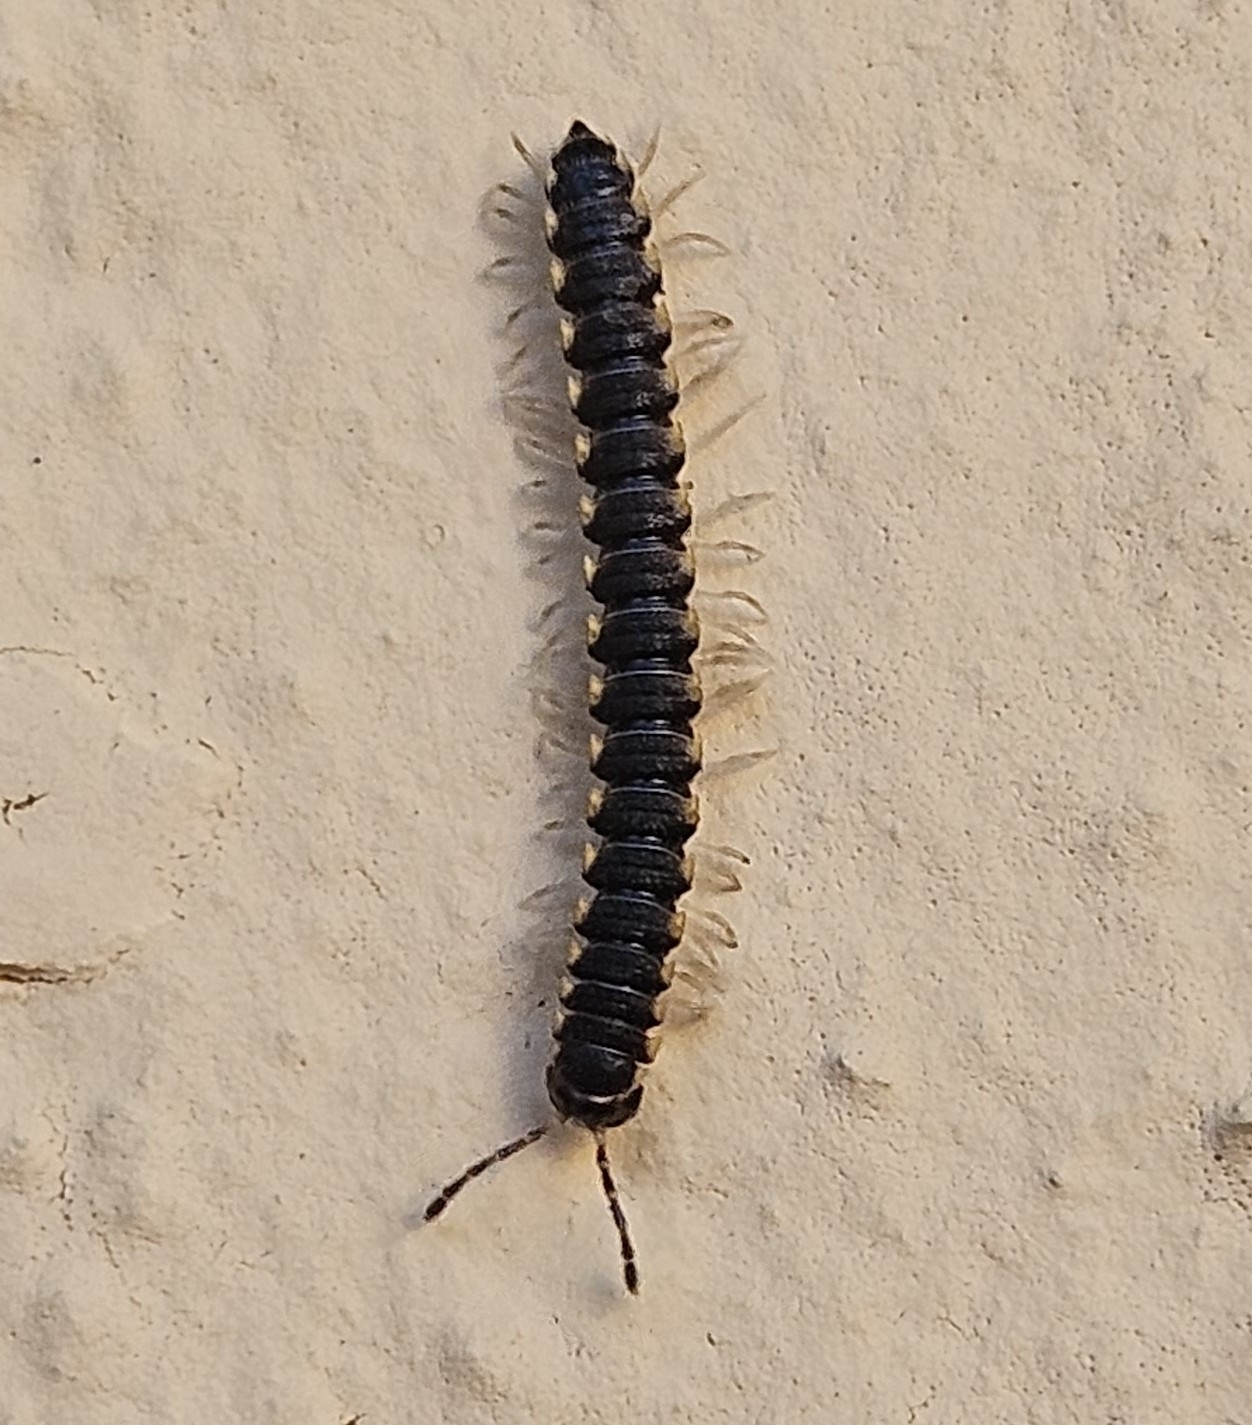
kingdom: Animalia
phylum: Arthropoda
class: Diplopoda
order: Polydesmida
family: Paradoxosomatidae
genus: Orthomorpha
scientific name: Orthomorpha coarctata
